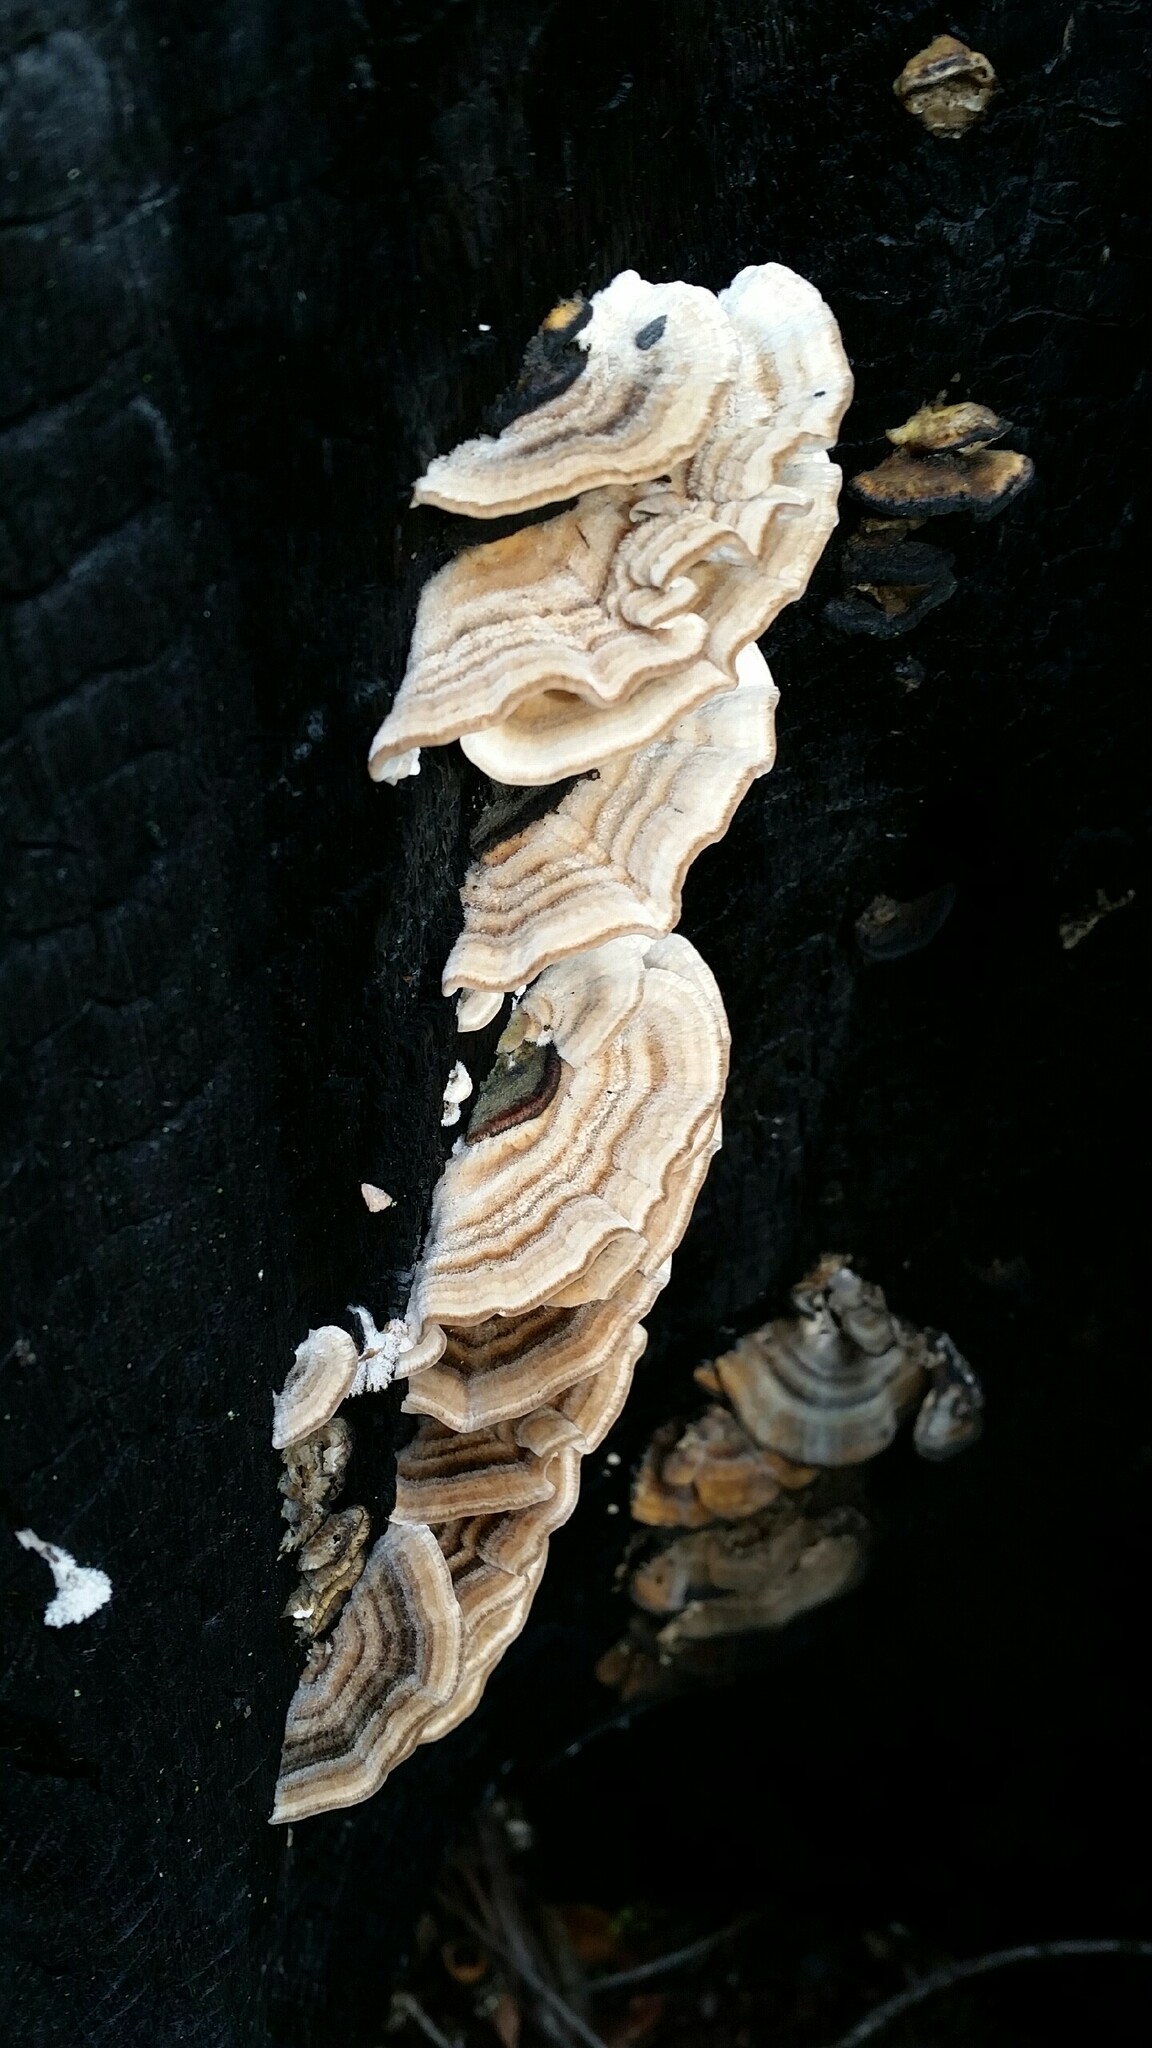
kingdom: Fungi
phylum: Basidiomycota
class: Agaricomycetes
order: Polyporales
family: Polyporaceae
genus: Trametes
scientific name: Trametes versicolor
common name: Turkeytail
